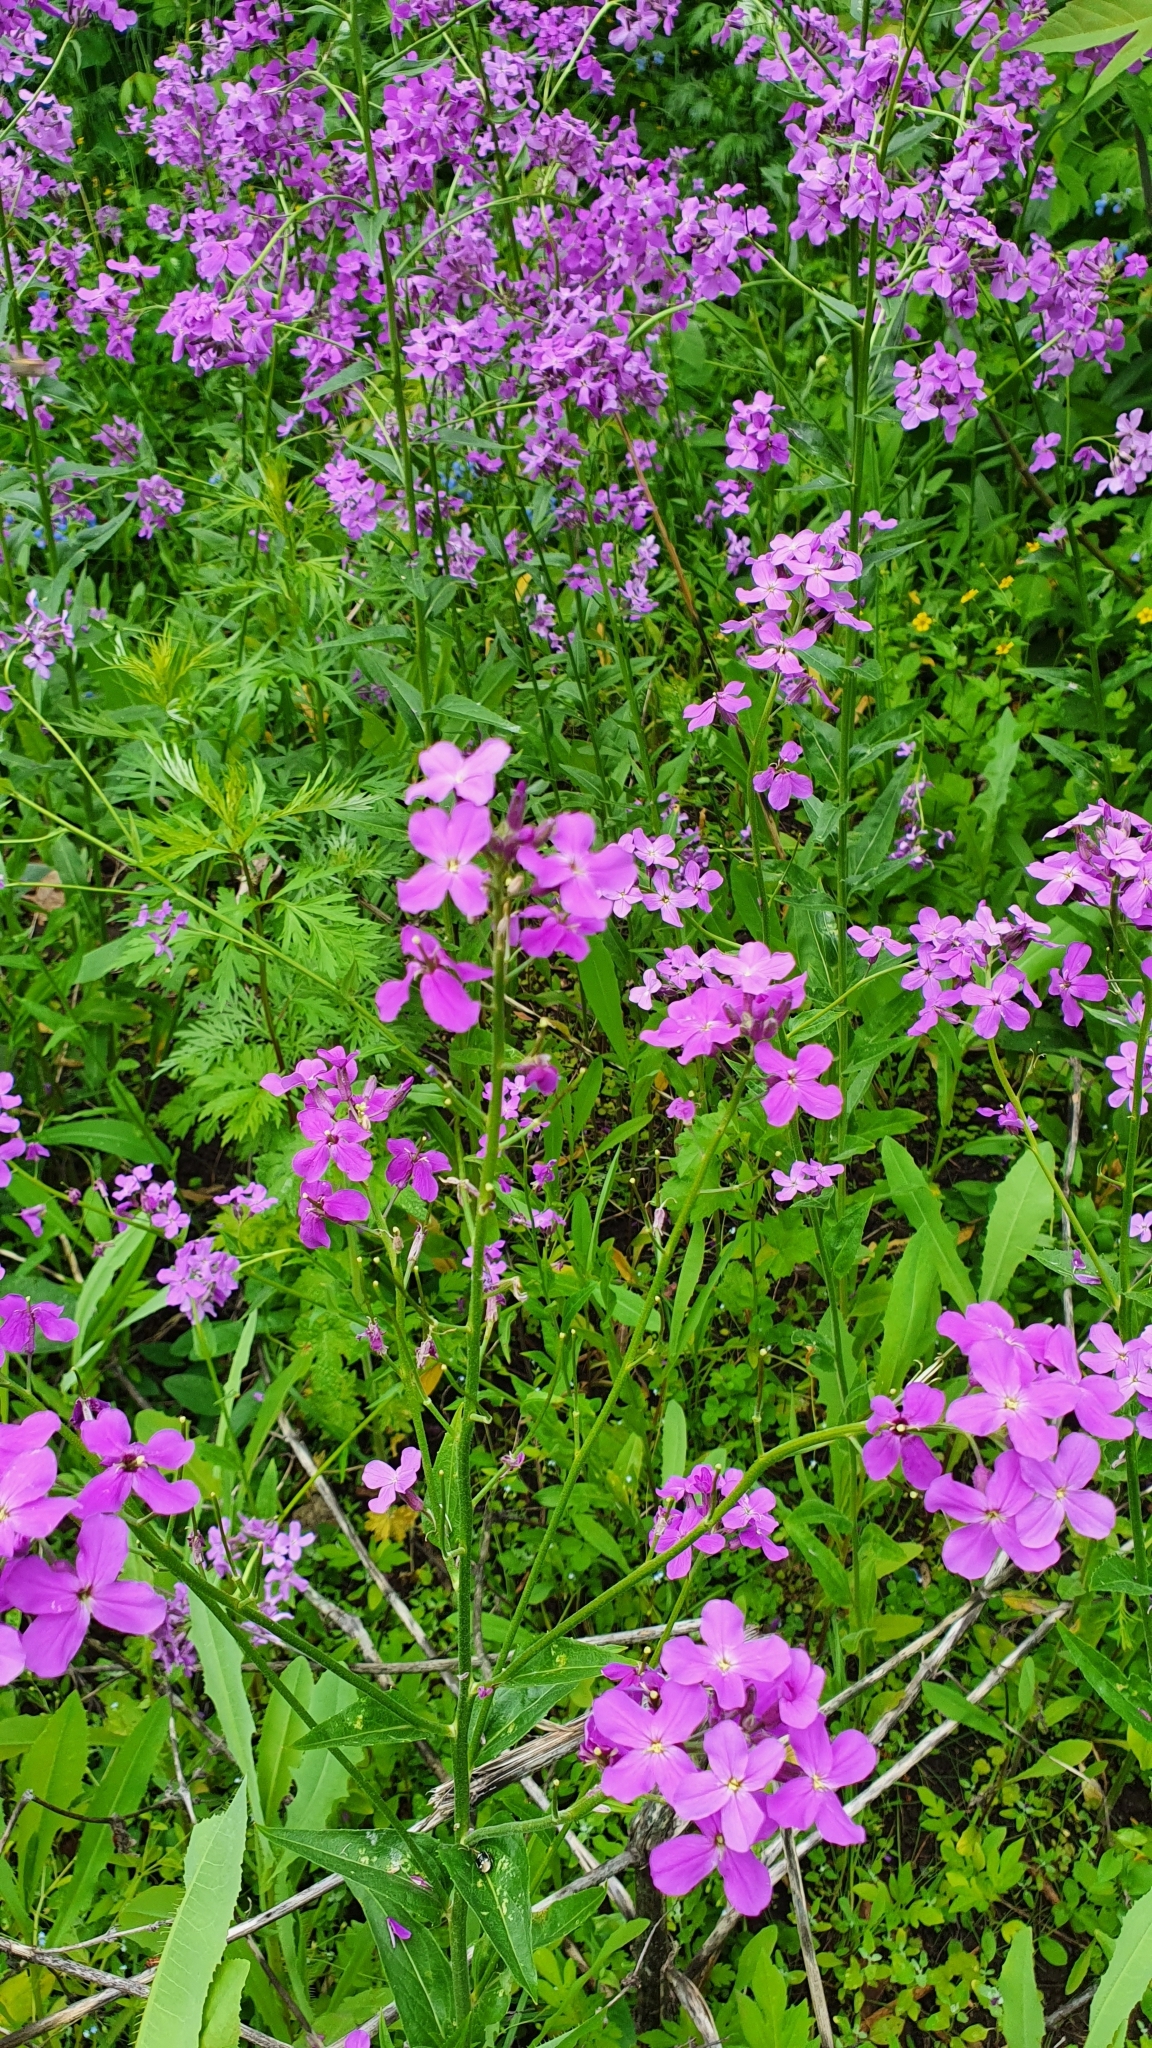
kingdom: Plantae
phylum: Tracheophyta
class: Magnoliopsida
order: Brassicales
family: Brassicaceae
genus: Hesperis
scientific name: Hesperis matronalis
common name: Dame's-violet
